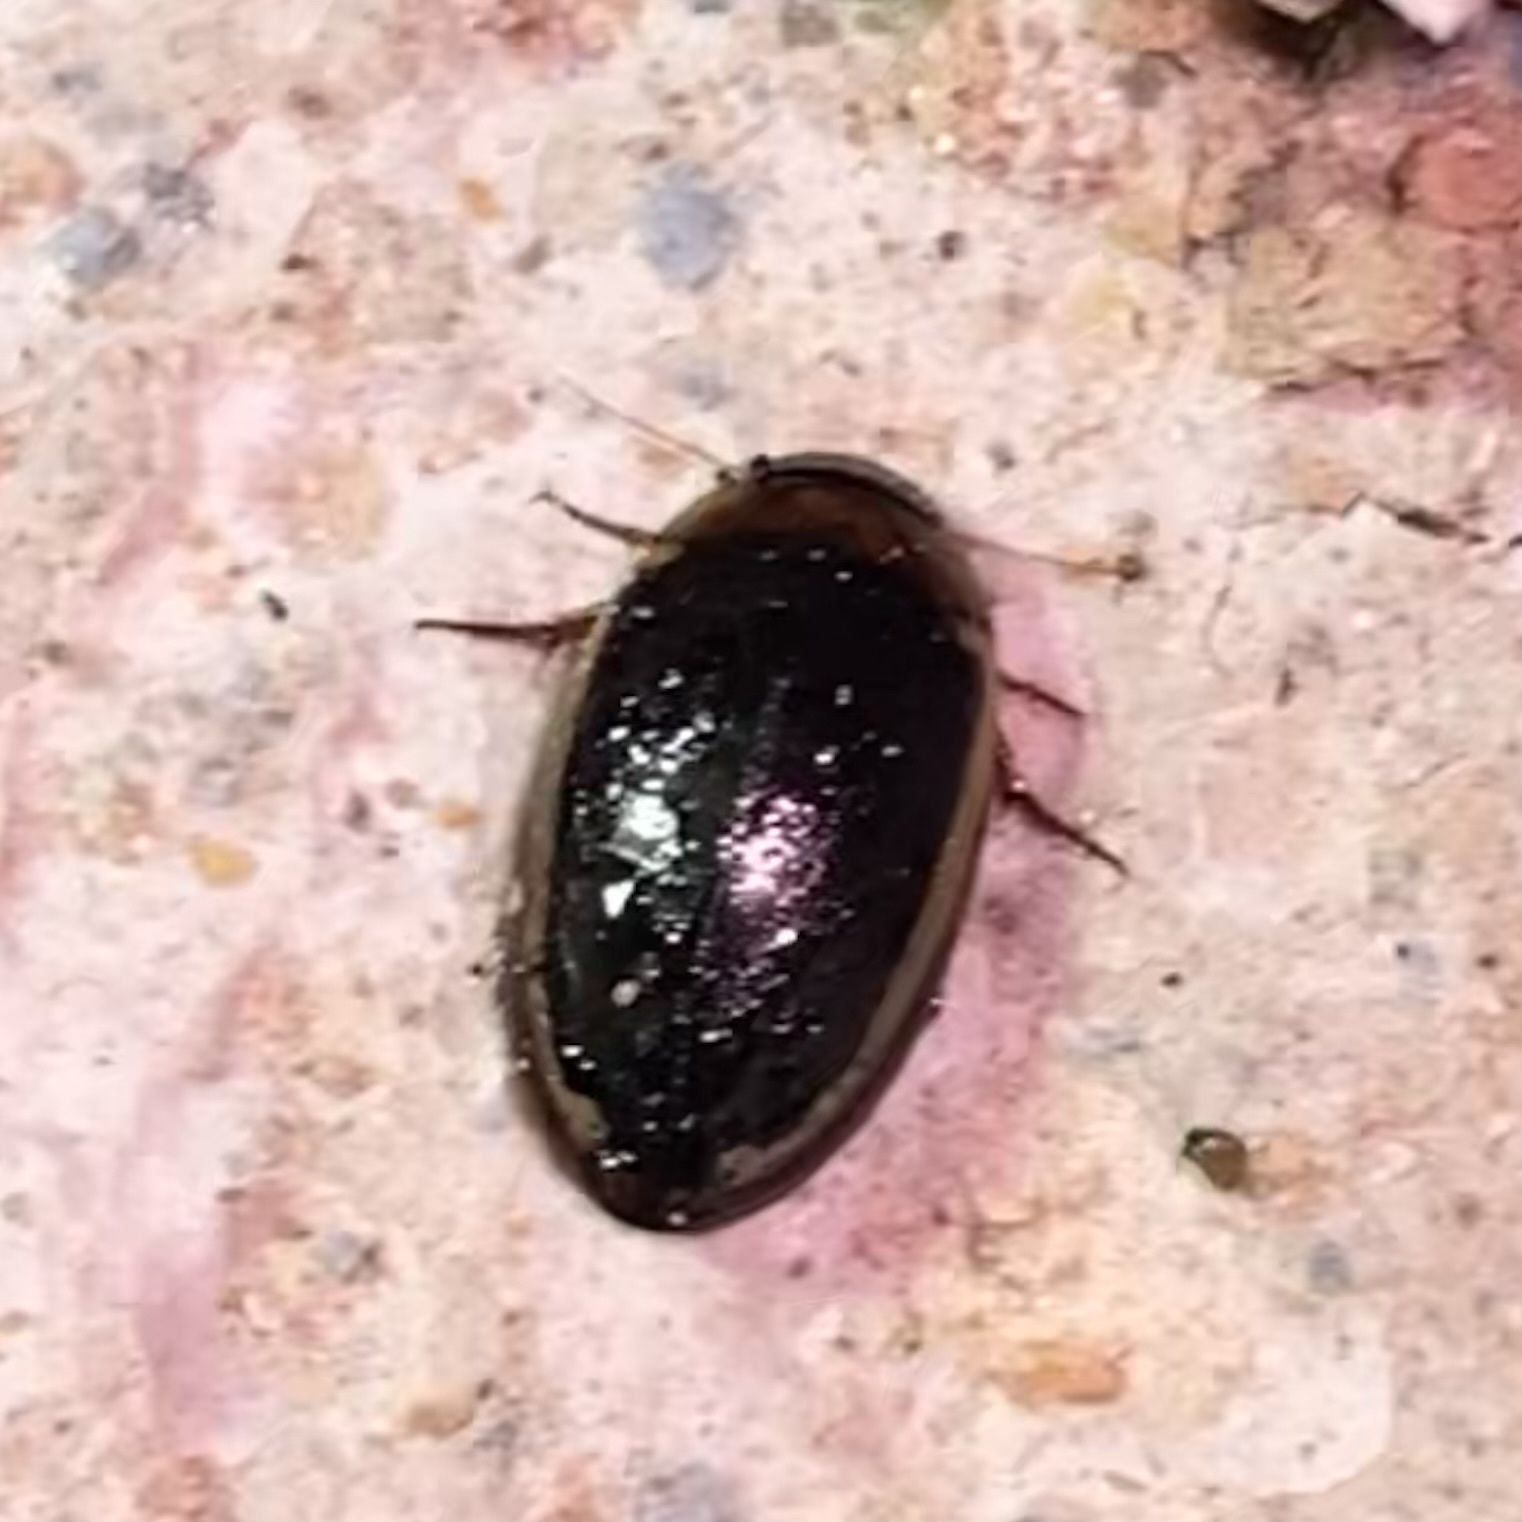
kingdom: Animalia
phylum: Arthropoda
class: Insecta
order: Coleoptera
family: Dytiscidae
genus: Hydaticus
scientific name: Hydaticus bimarginatus
